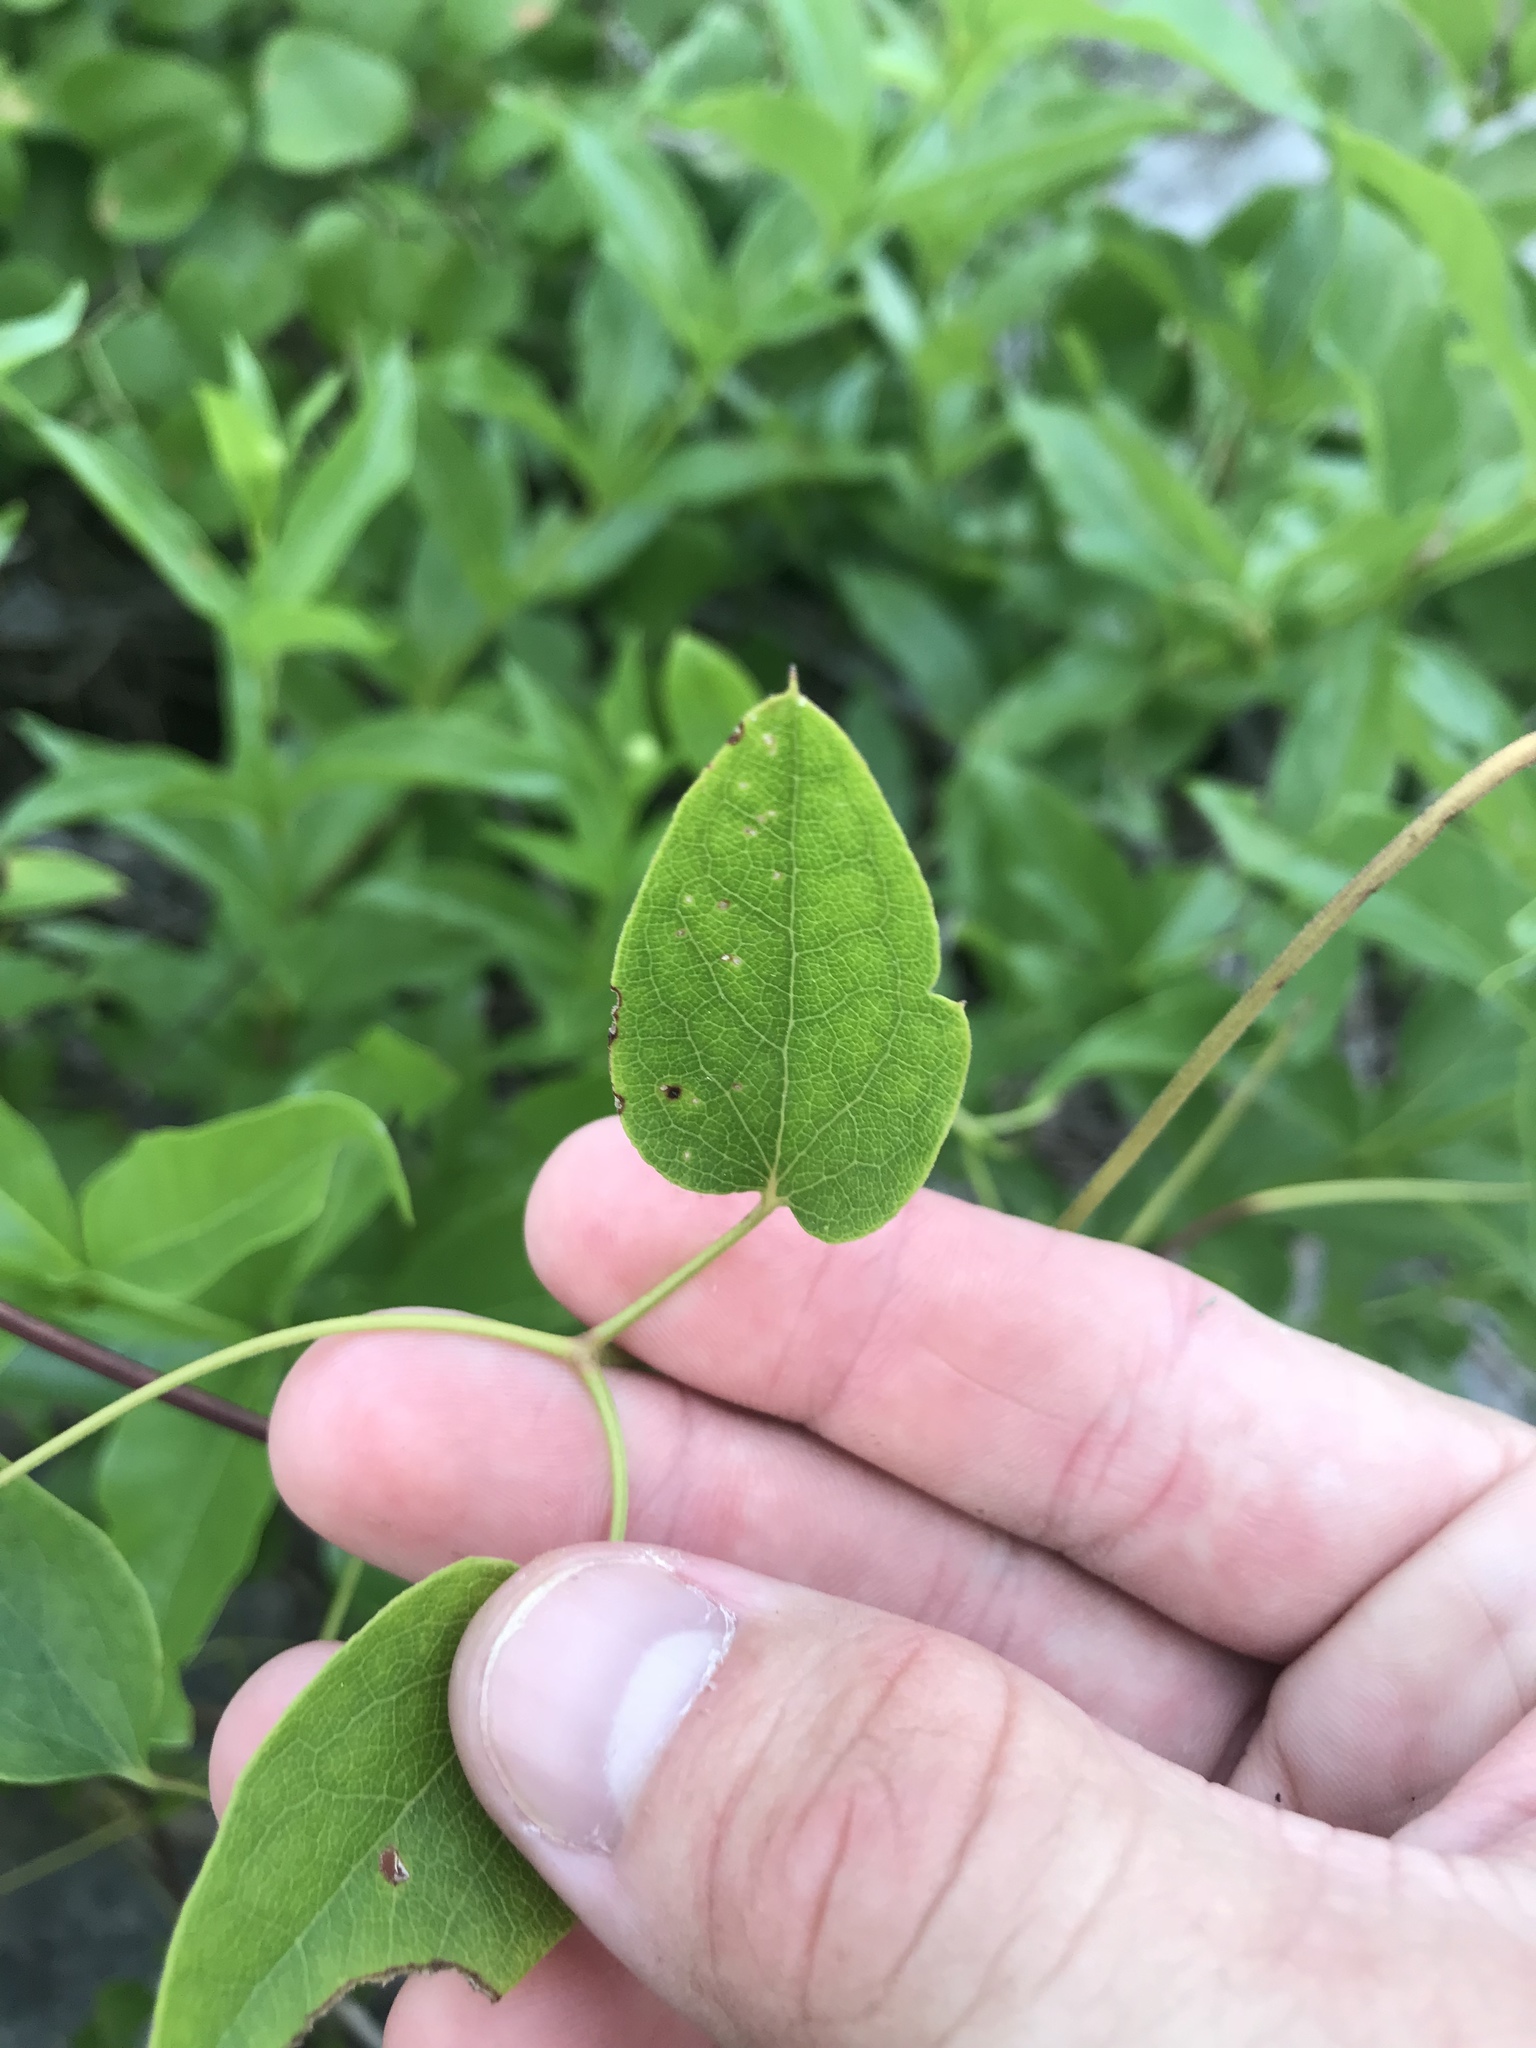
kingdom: Plantae
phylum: Tracheophyta
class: Magnoliopsida
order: Ranunculales
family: Ranunculaceae
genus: Clematis
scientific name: Clematis pitcheri
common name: Bellflower clematis
